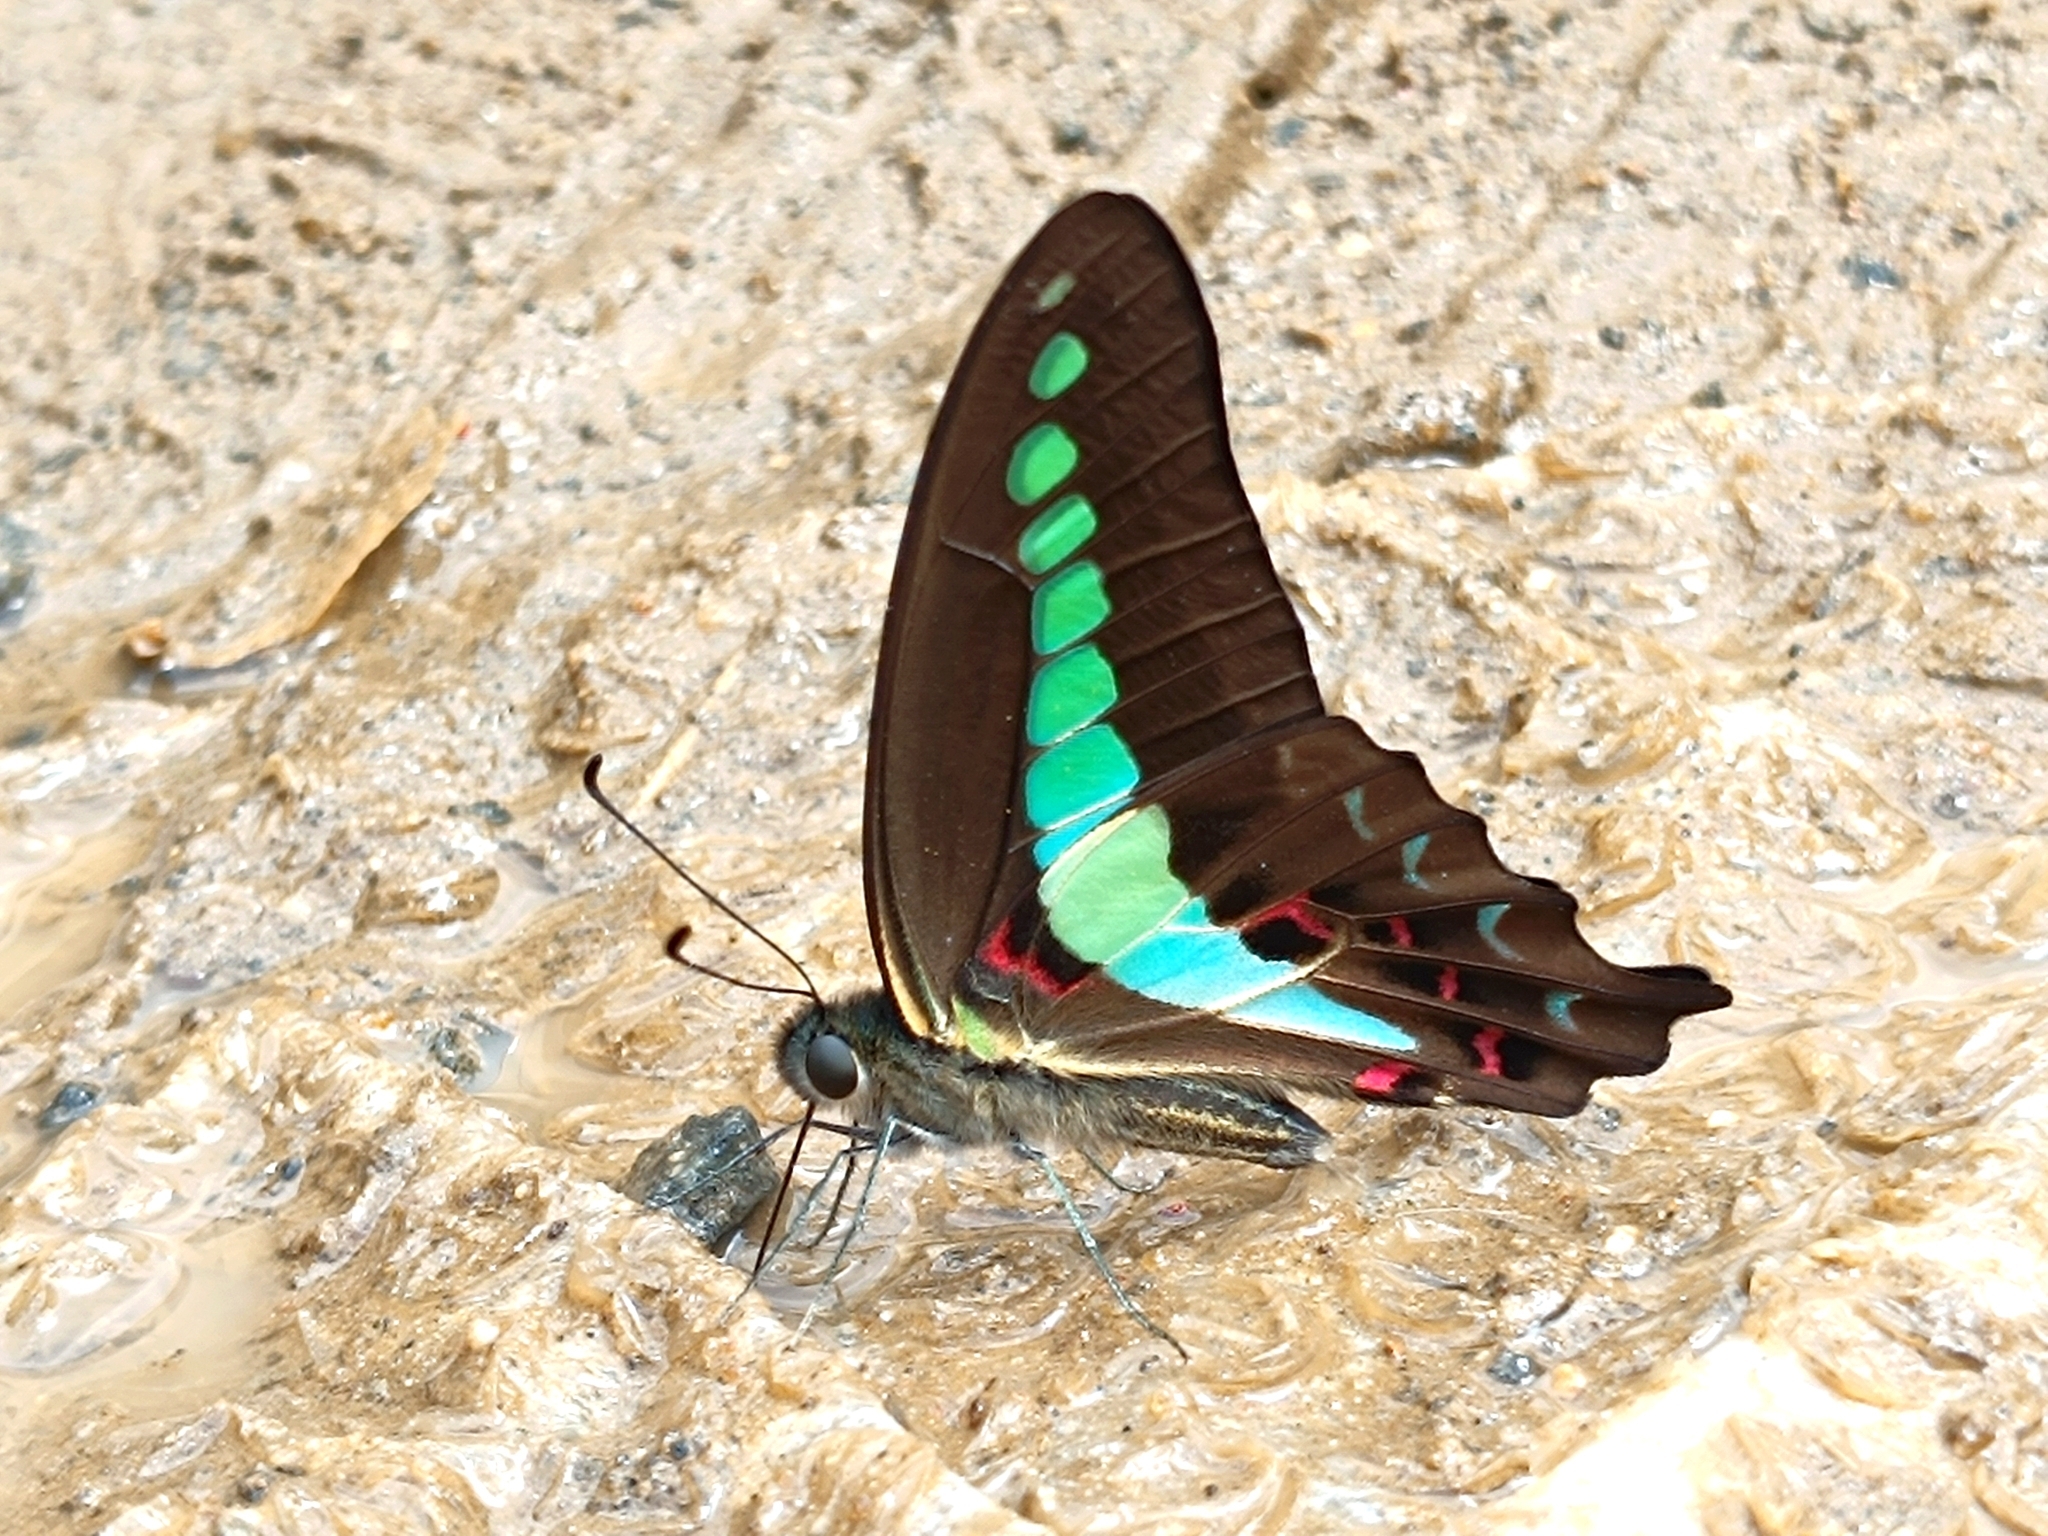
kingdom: Animalia
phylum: Arthropoda
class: Insecta
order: Lepidoptera
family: Papilionidae
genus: Graphium
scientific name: Graphium
